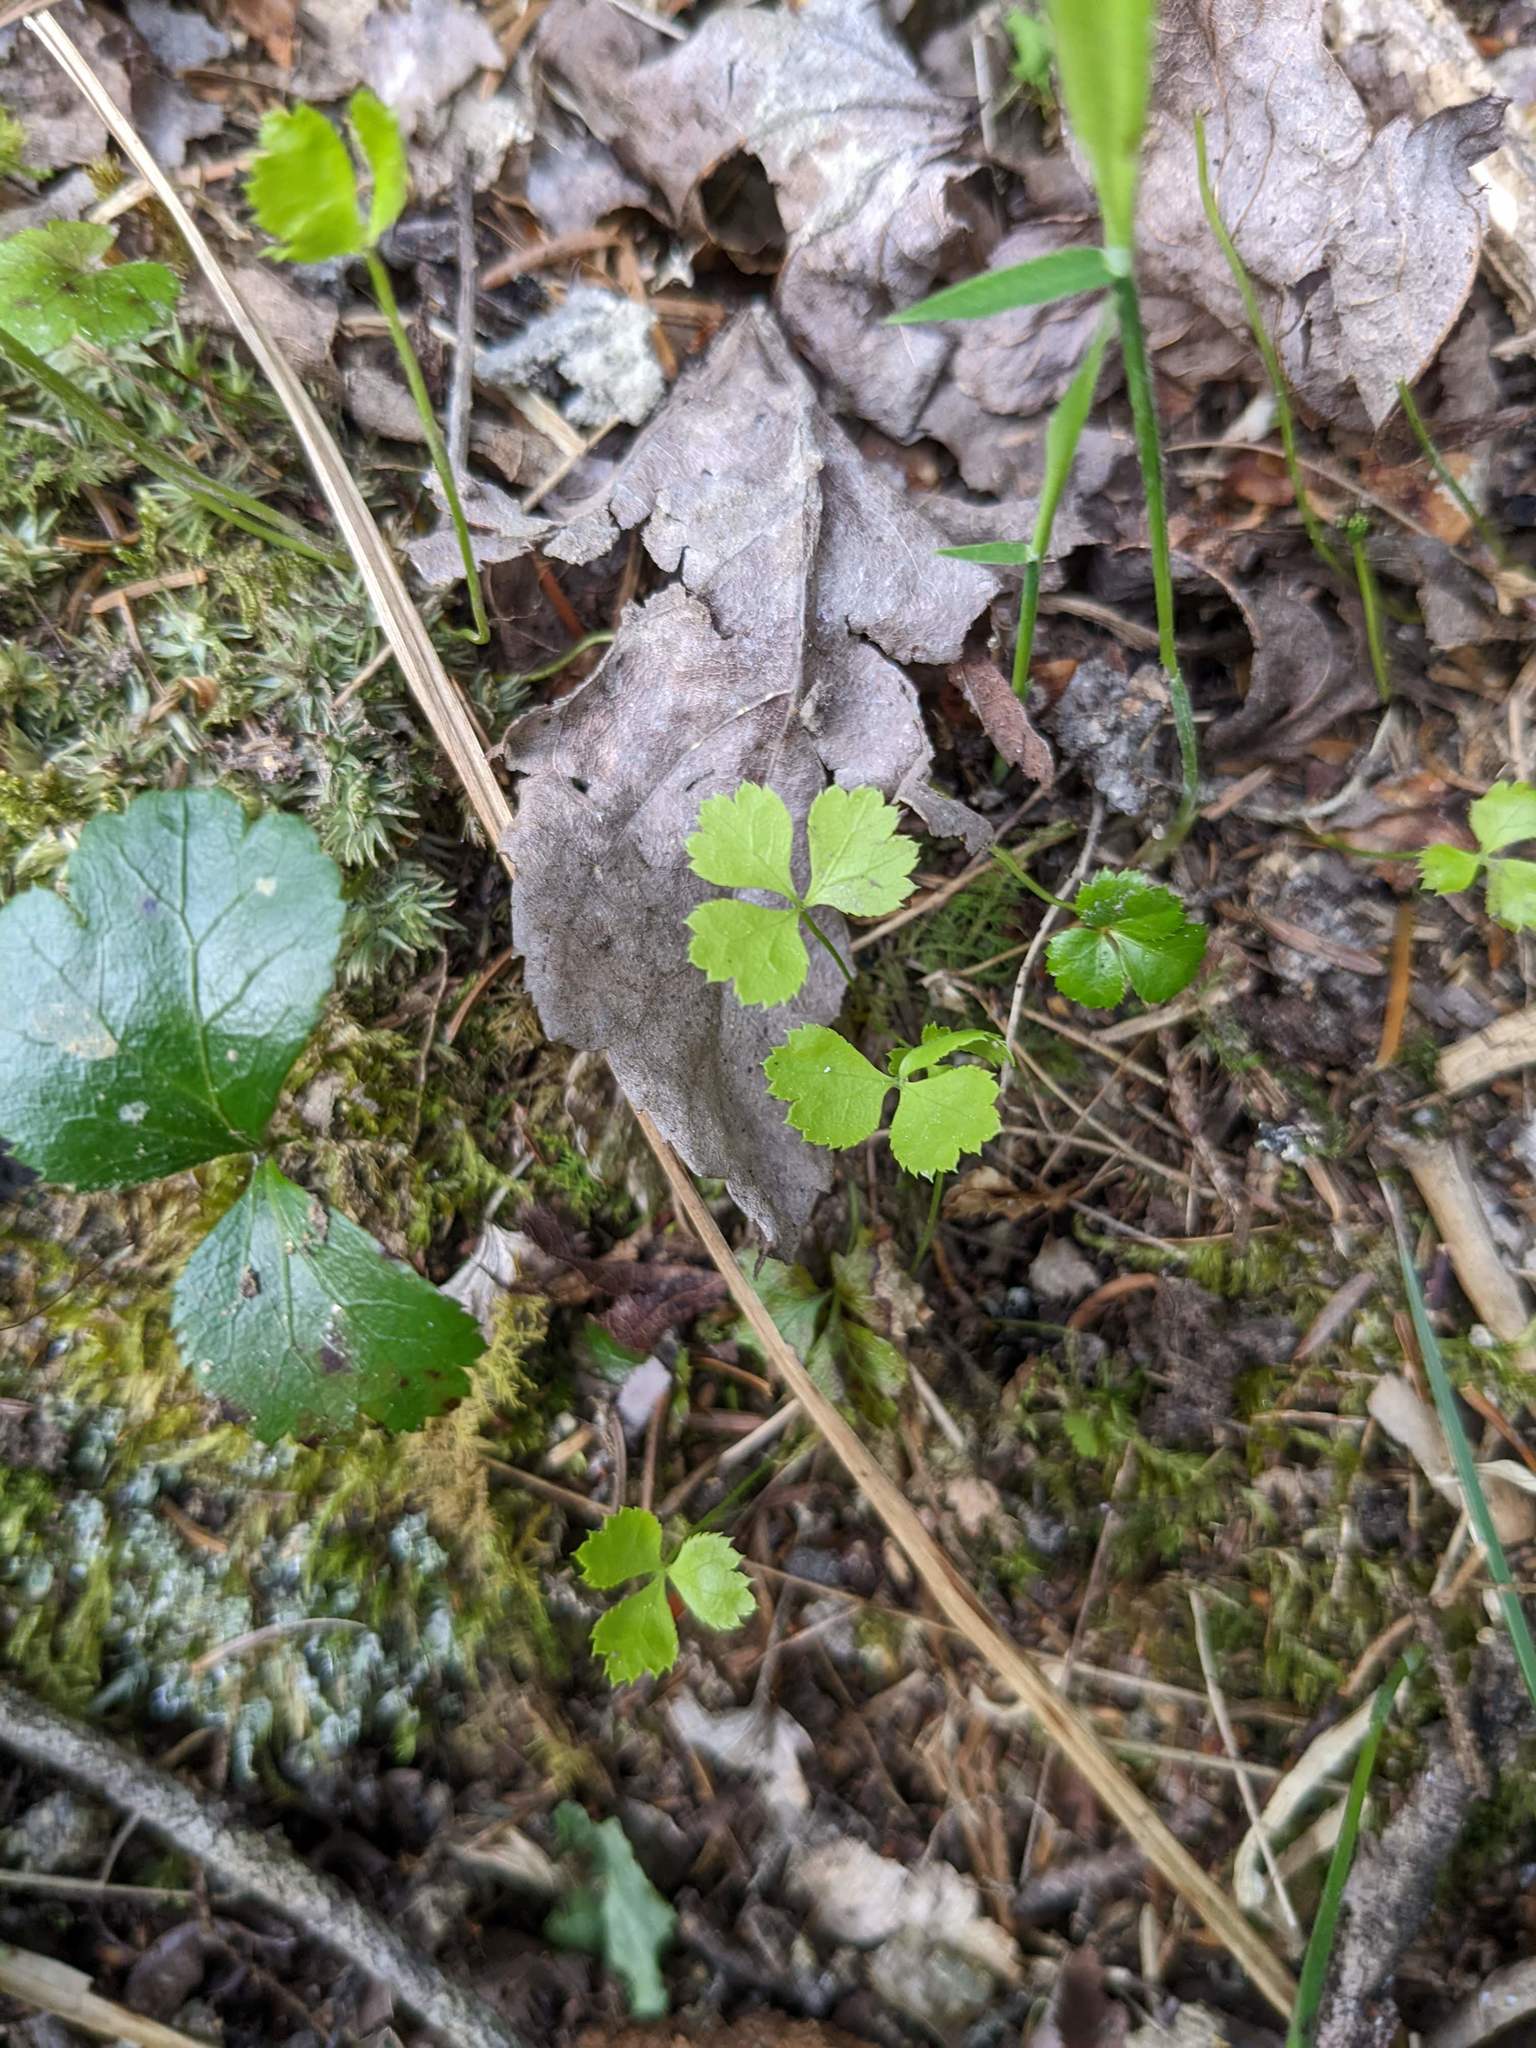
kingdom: Plantae
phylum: Tracheophyta
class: Magnoliopsida
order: Ranunculales
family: Ranunculaceae
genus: Coptis
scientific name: Coptis trifolia
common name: Canker-root
